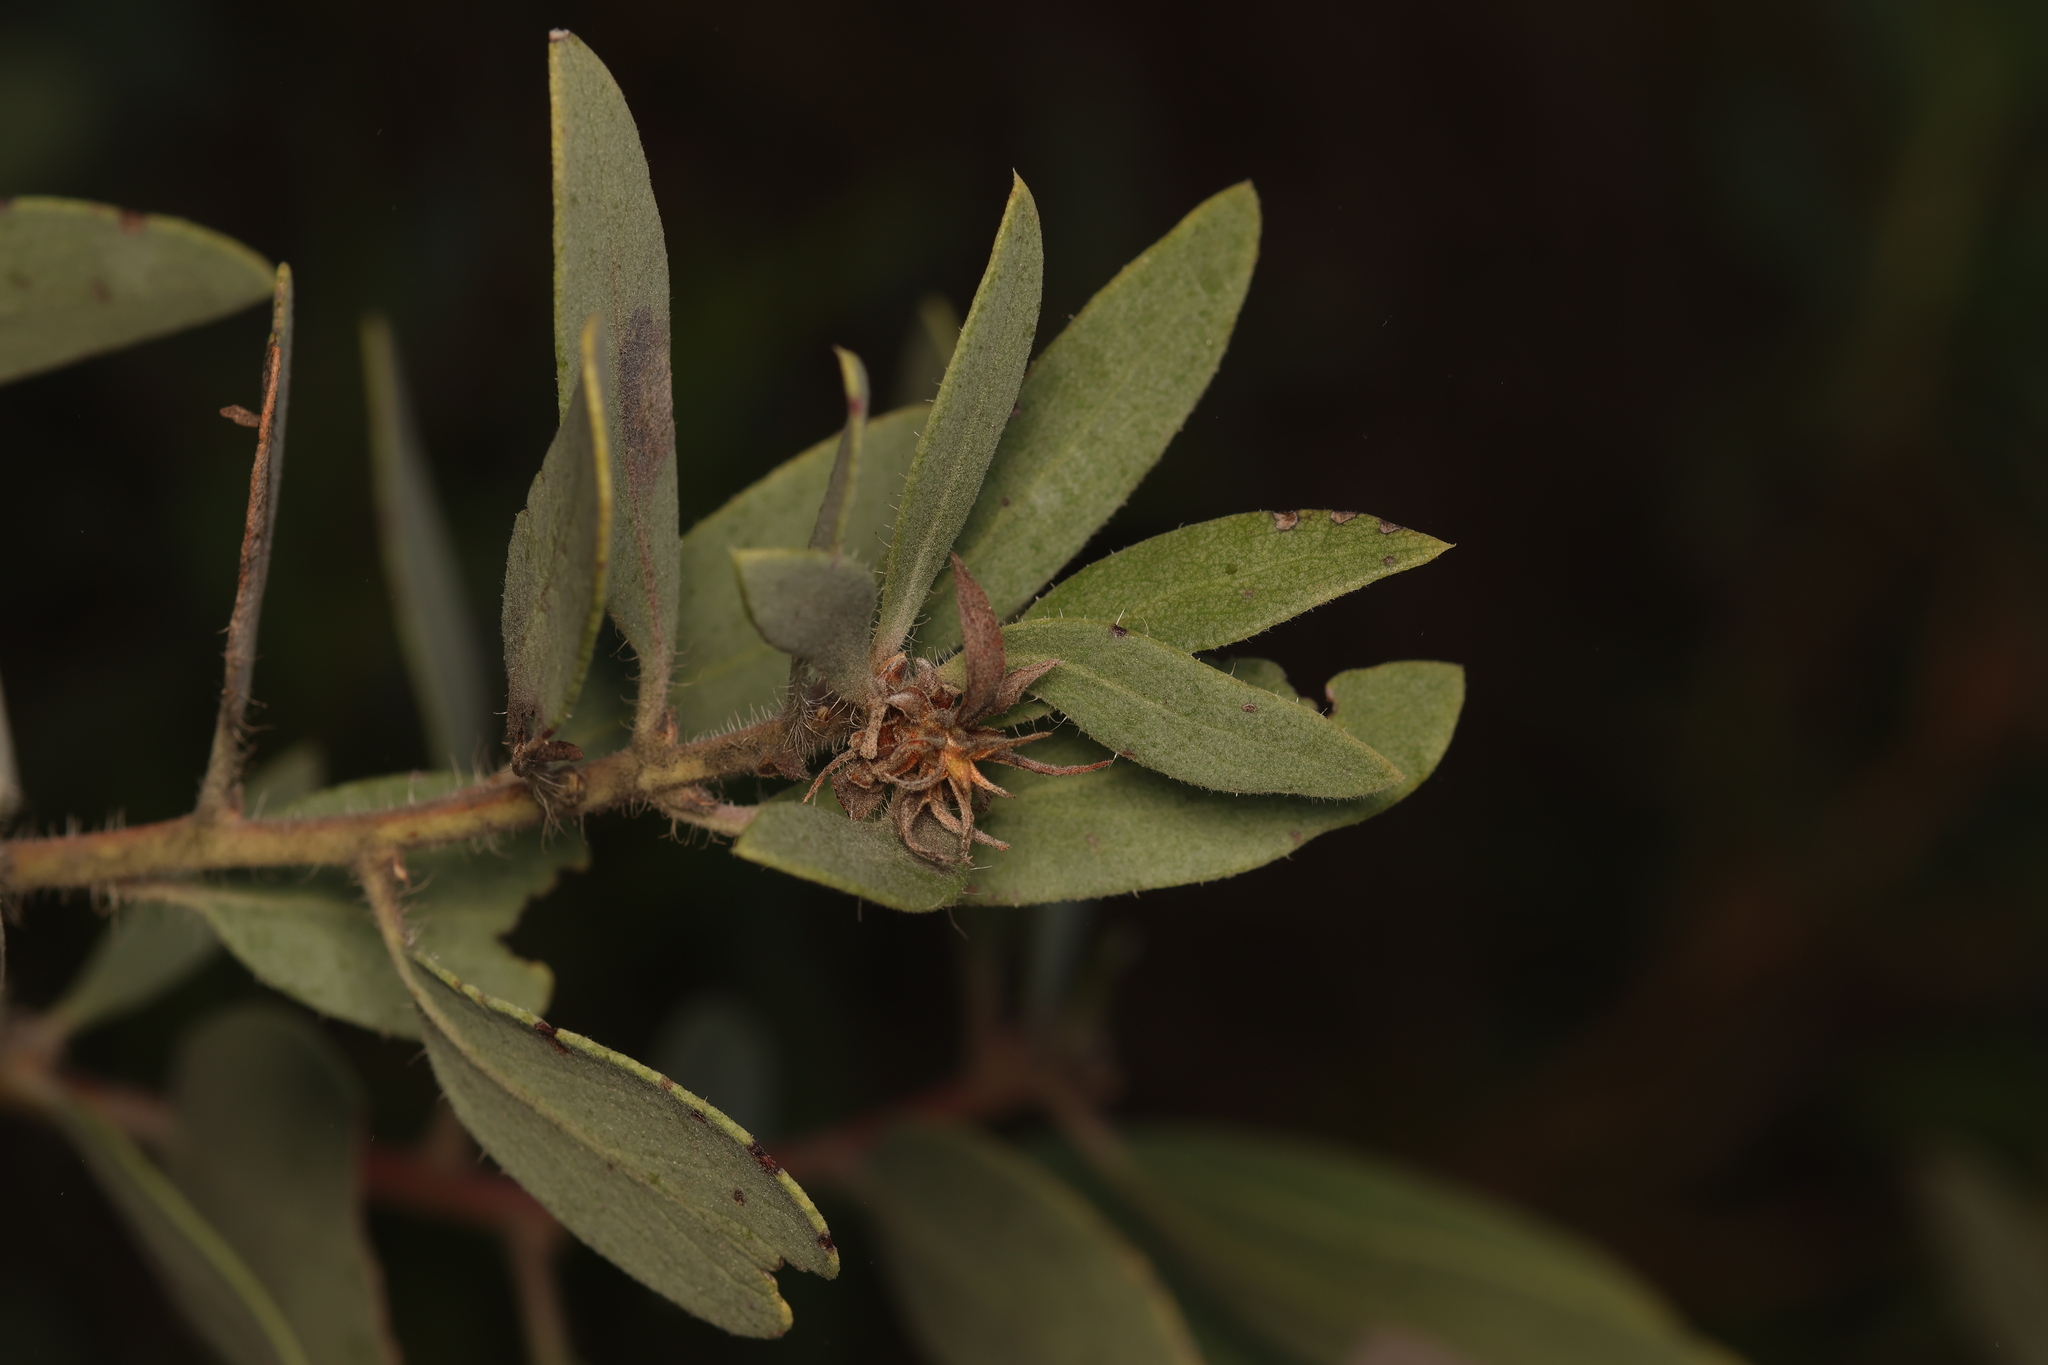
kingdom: Plantae
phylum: Tracheophyta
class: Magnoliopsida
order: Ericales
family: Ericaceae
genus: Arctostaphylos
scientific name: Arctostaphylos glandulosa
